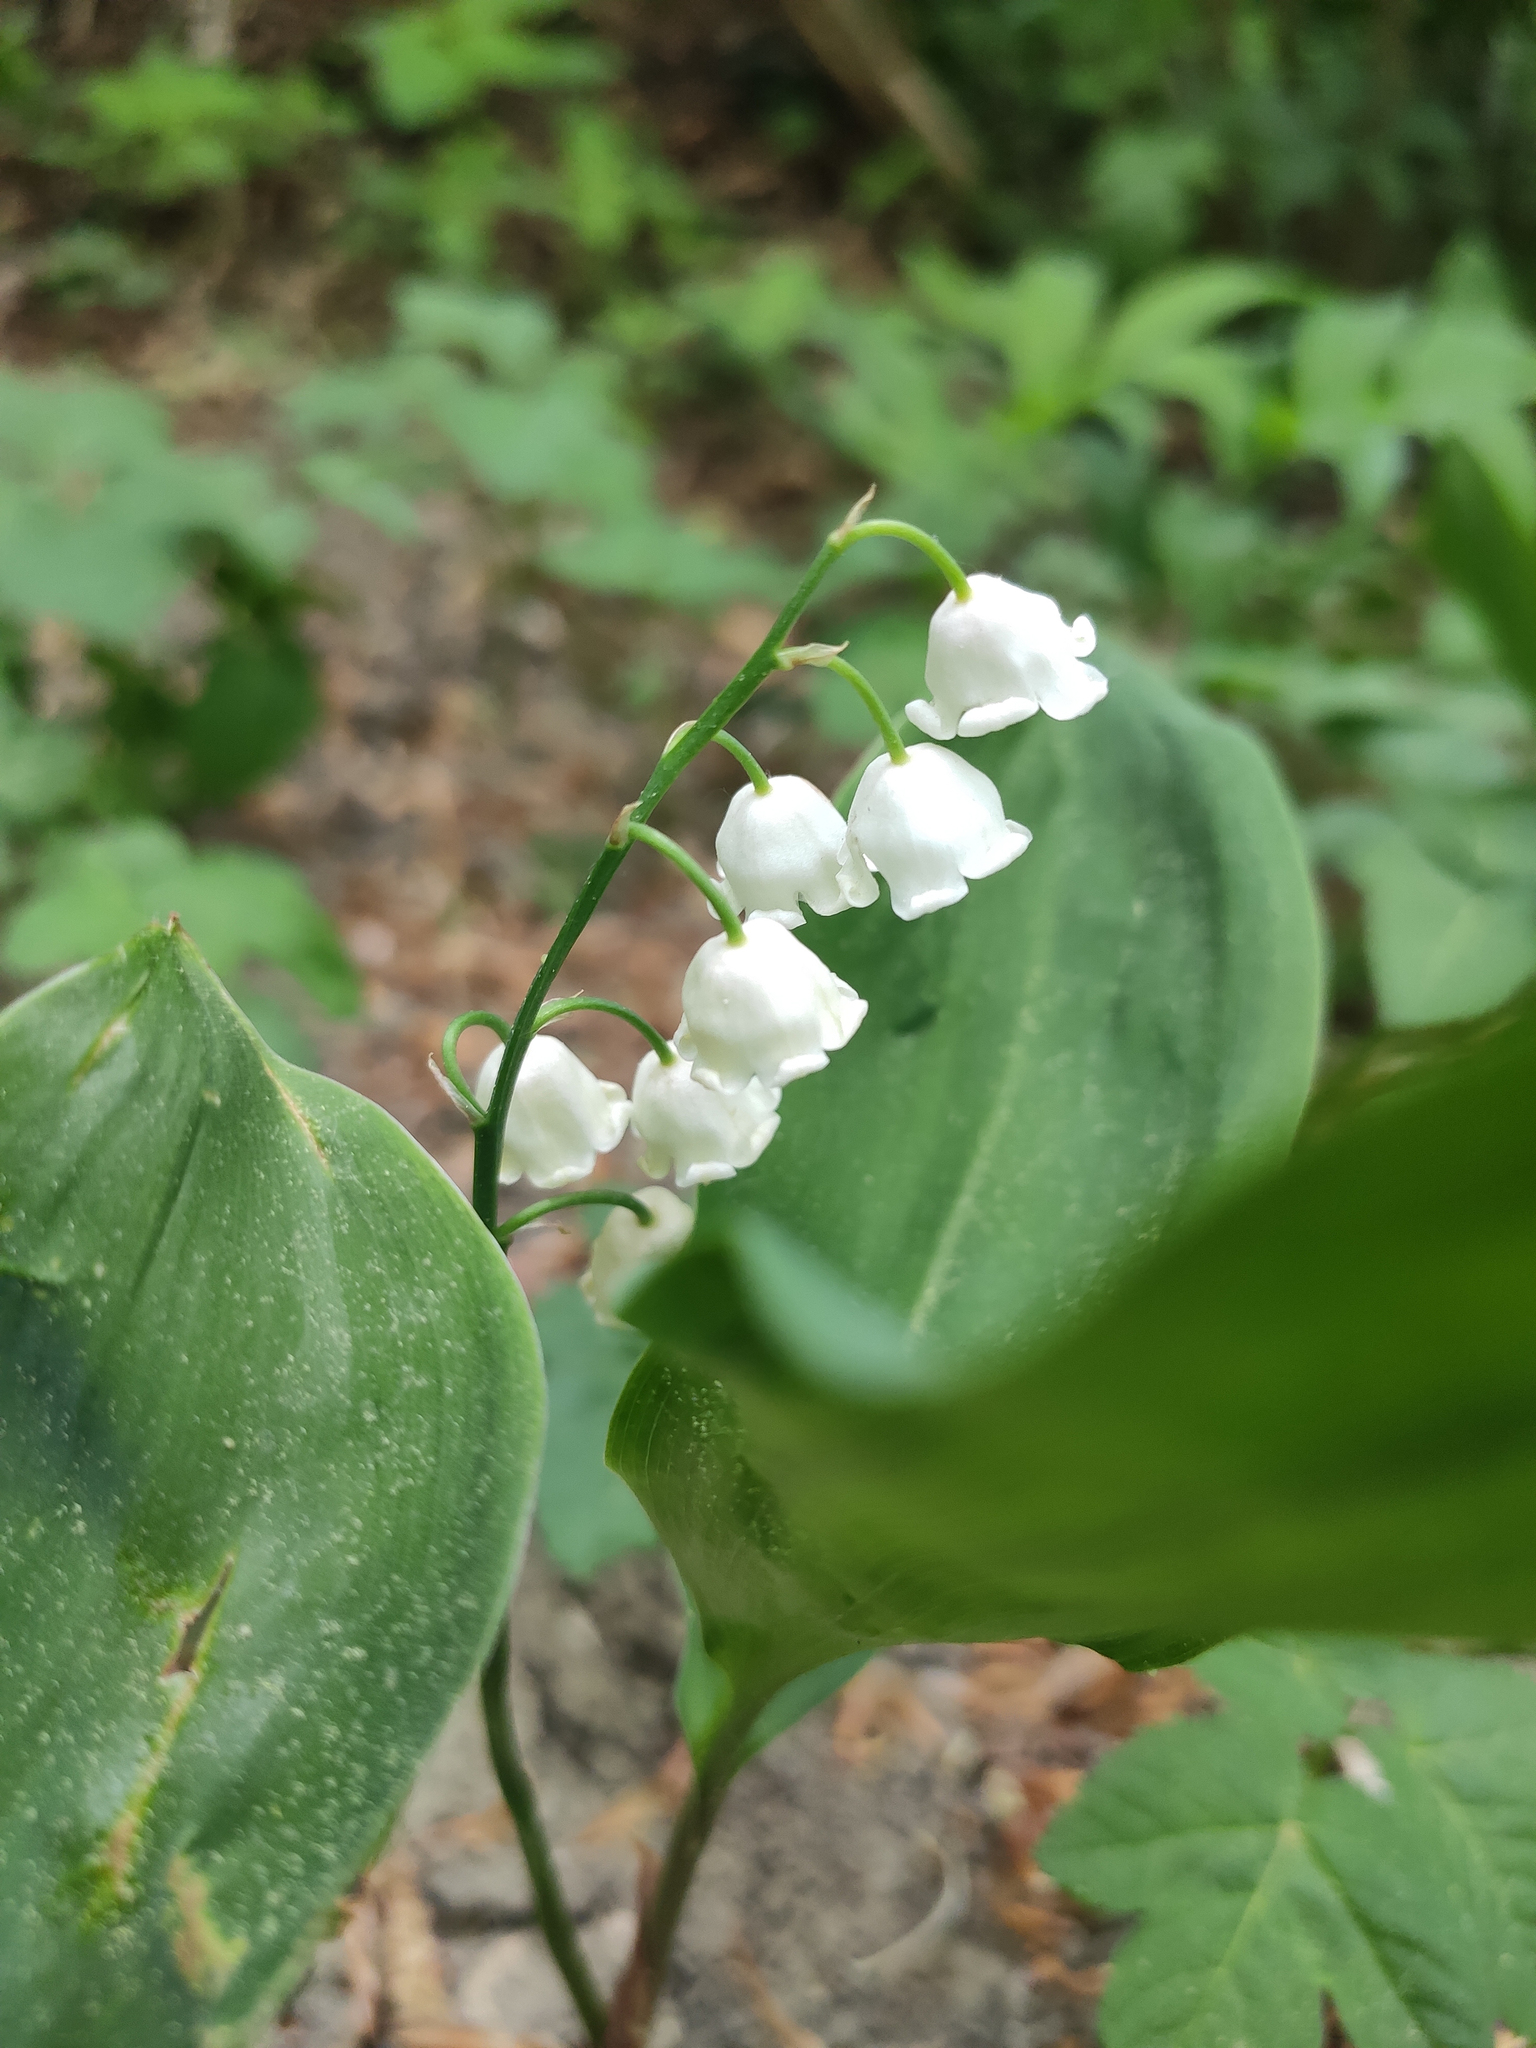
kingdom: Plantae
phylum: Tracheophyta
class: Liliopsida
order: Asparagales
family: Asparagaceae
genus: Convallaria
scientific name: Convallaria majalis
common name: Lily-of-the-valley
